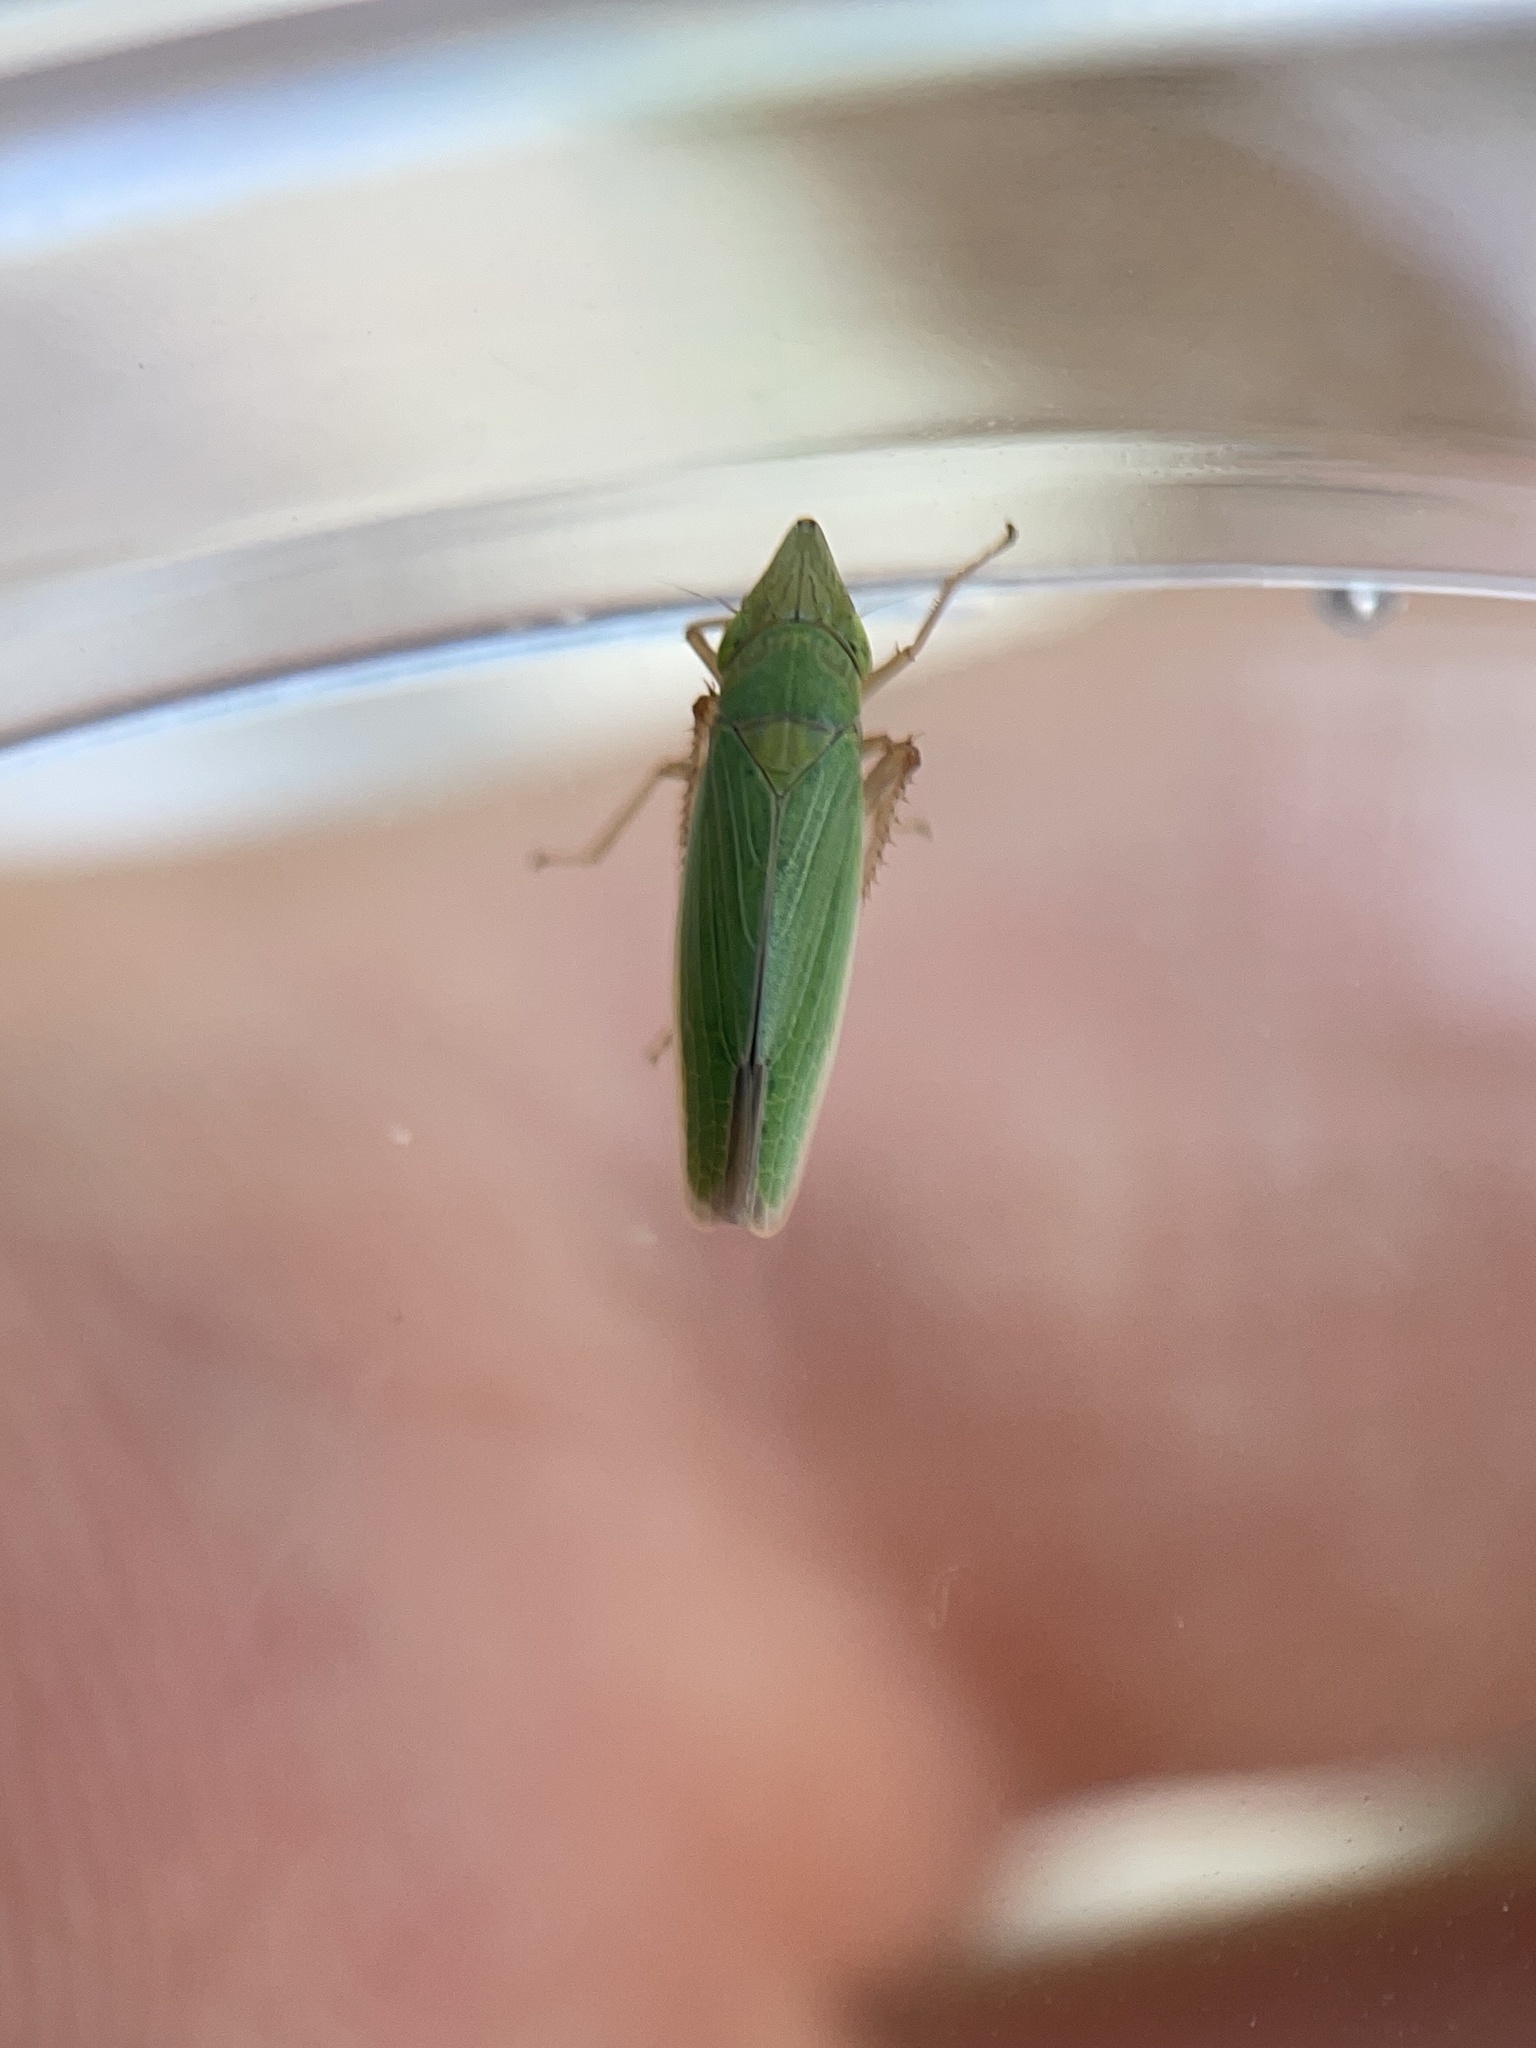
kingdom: Animalia
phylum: Arthropoda
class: Insecta
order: Hemiptera
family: Cicadellidae
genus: Draeculacephala
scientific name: Draeculacephala antica
